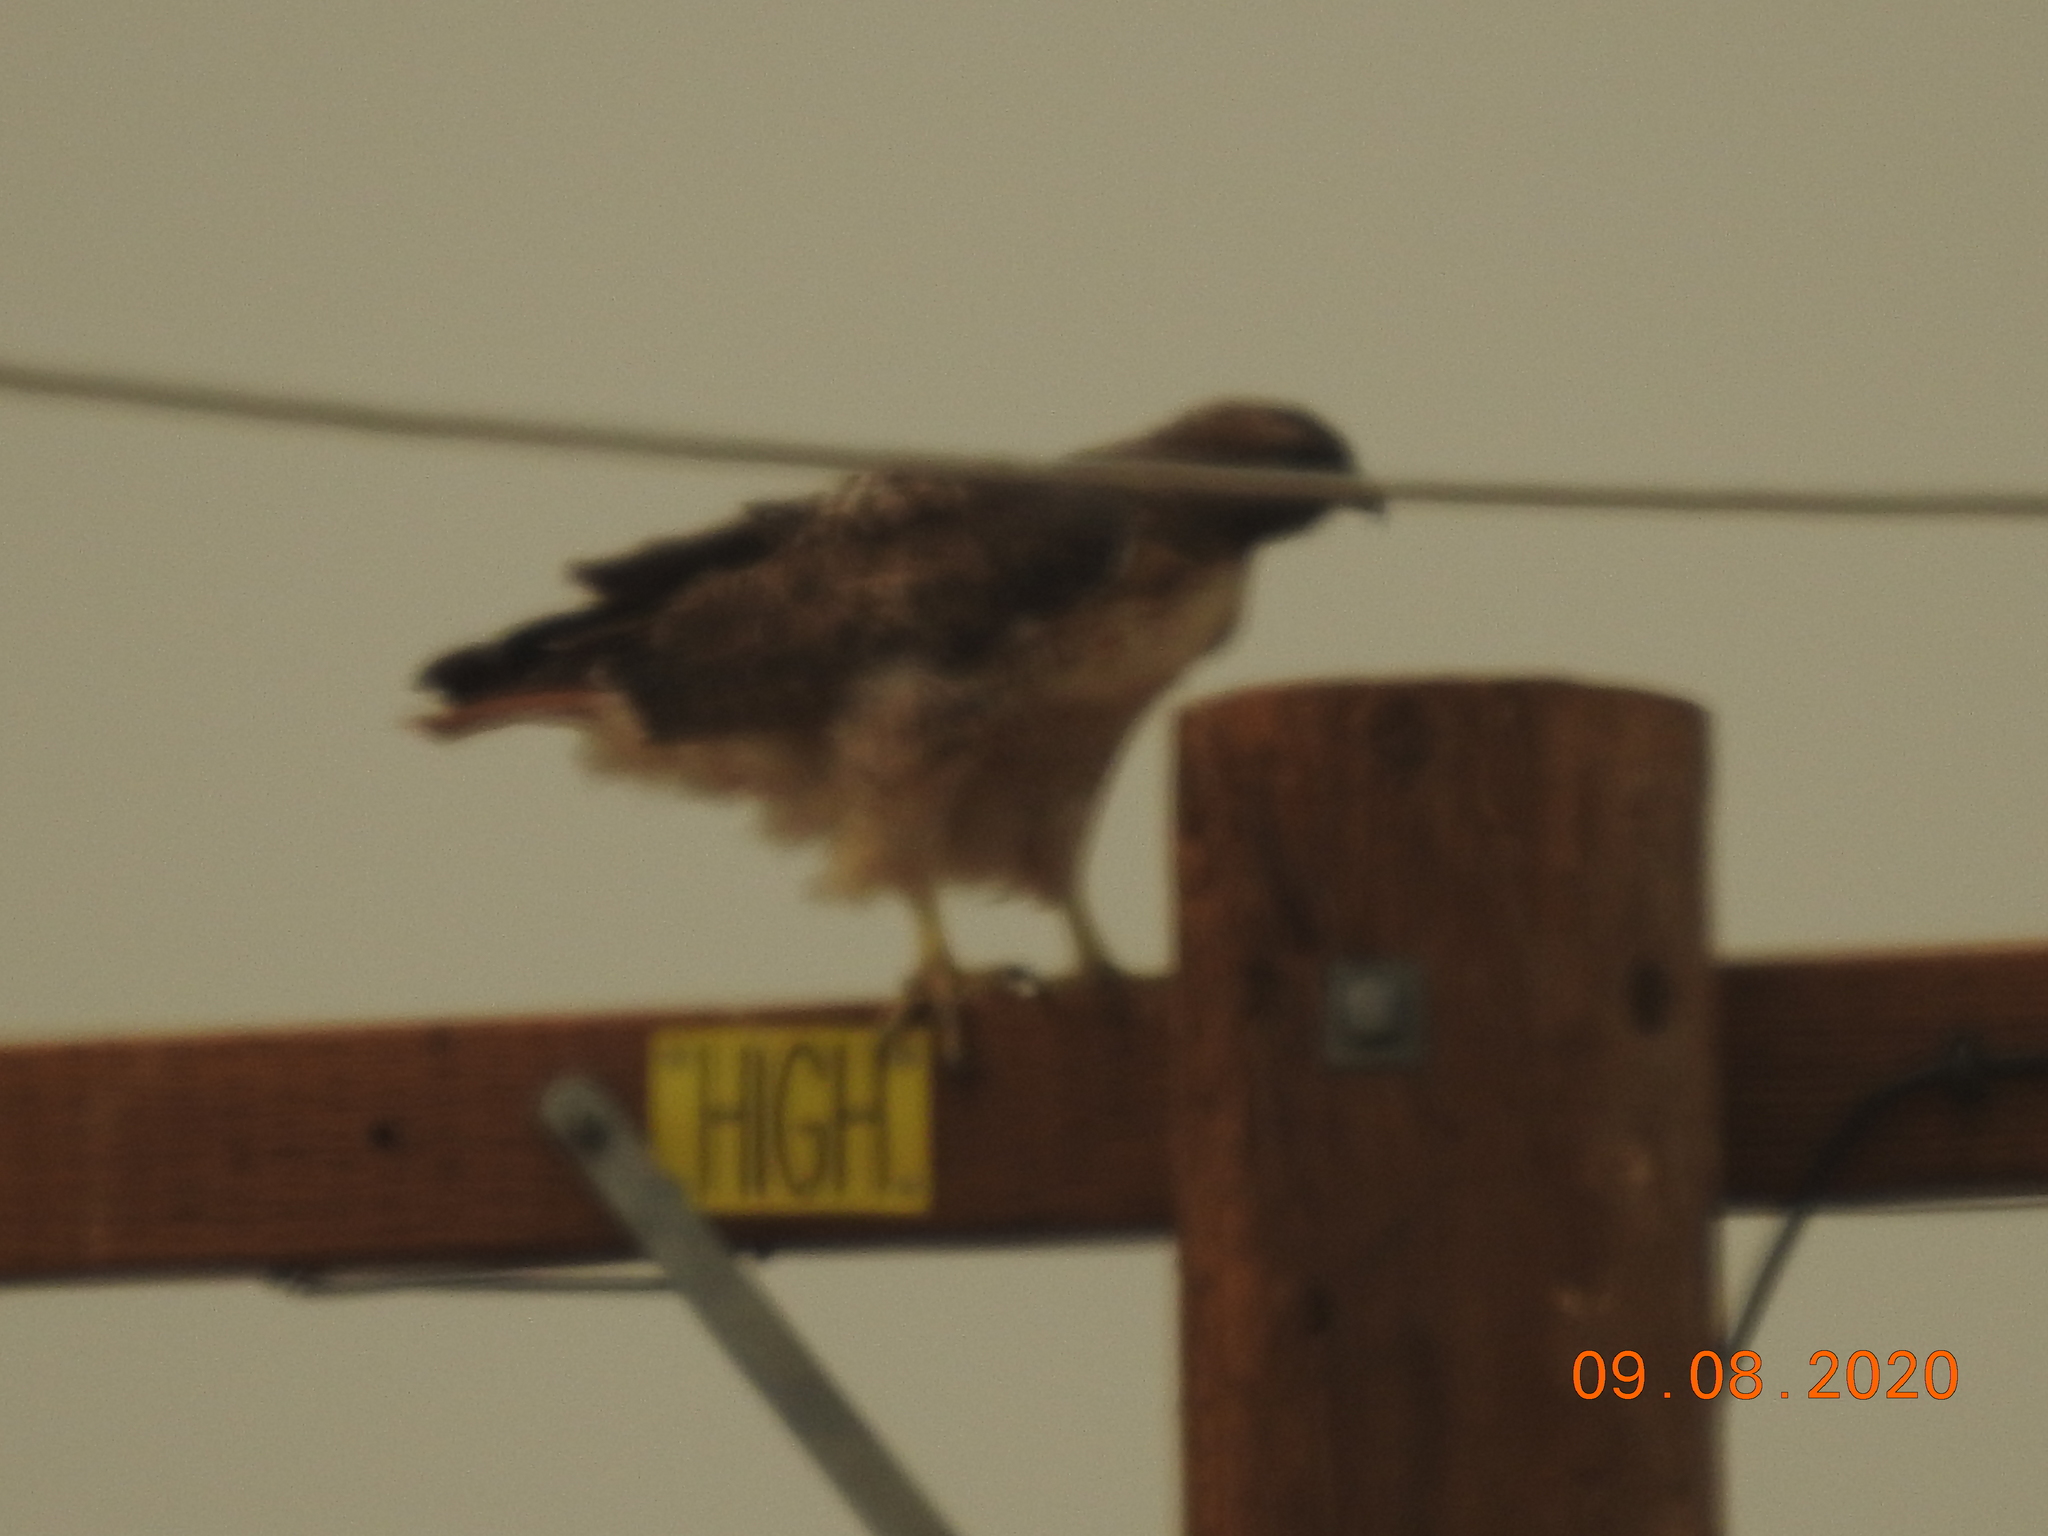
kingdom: Animalia
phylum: Chordata
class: Aves
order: Accipitriformes
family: Accipitridae
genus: Buteo
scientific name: Buteo jamaicensis
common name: Red-tailed hawk
